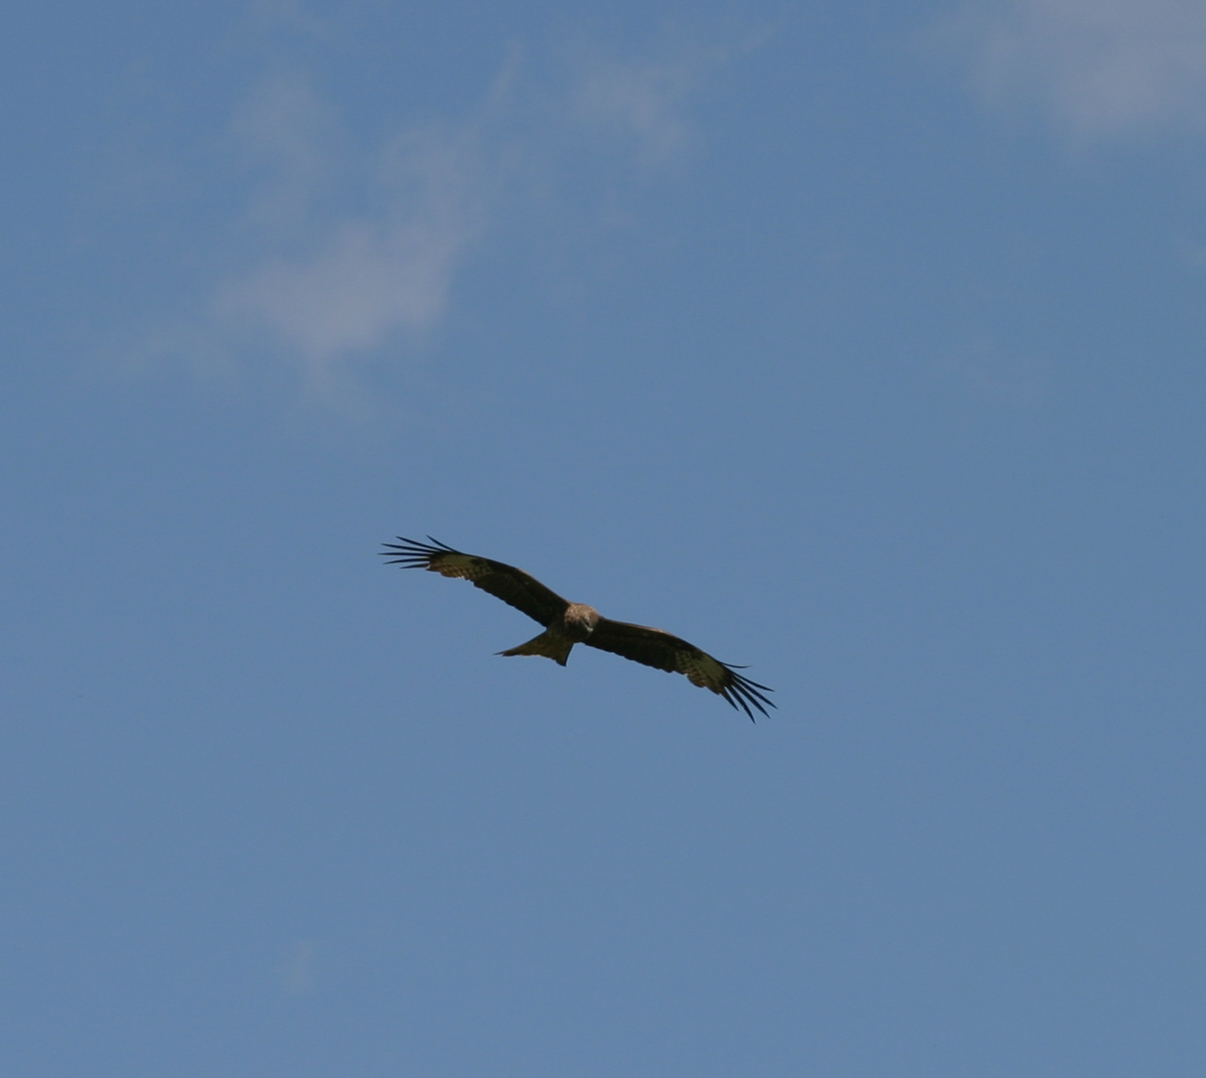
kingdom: Animalia
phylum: Chordata
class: Aves
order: Accipitriformes
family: Accipitridae
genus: Milvus
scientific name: Milvus migrans
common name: Black kite
